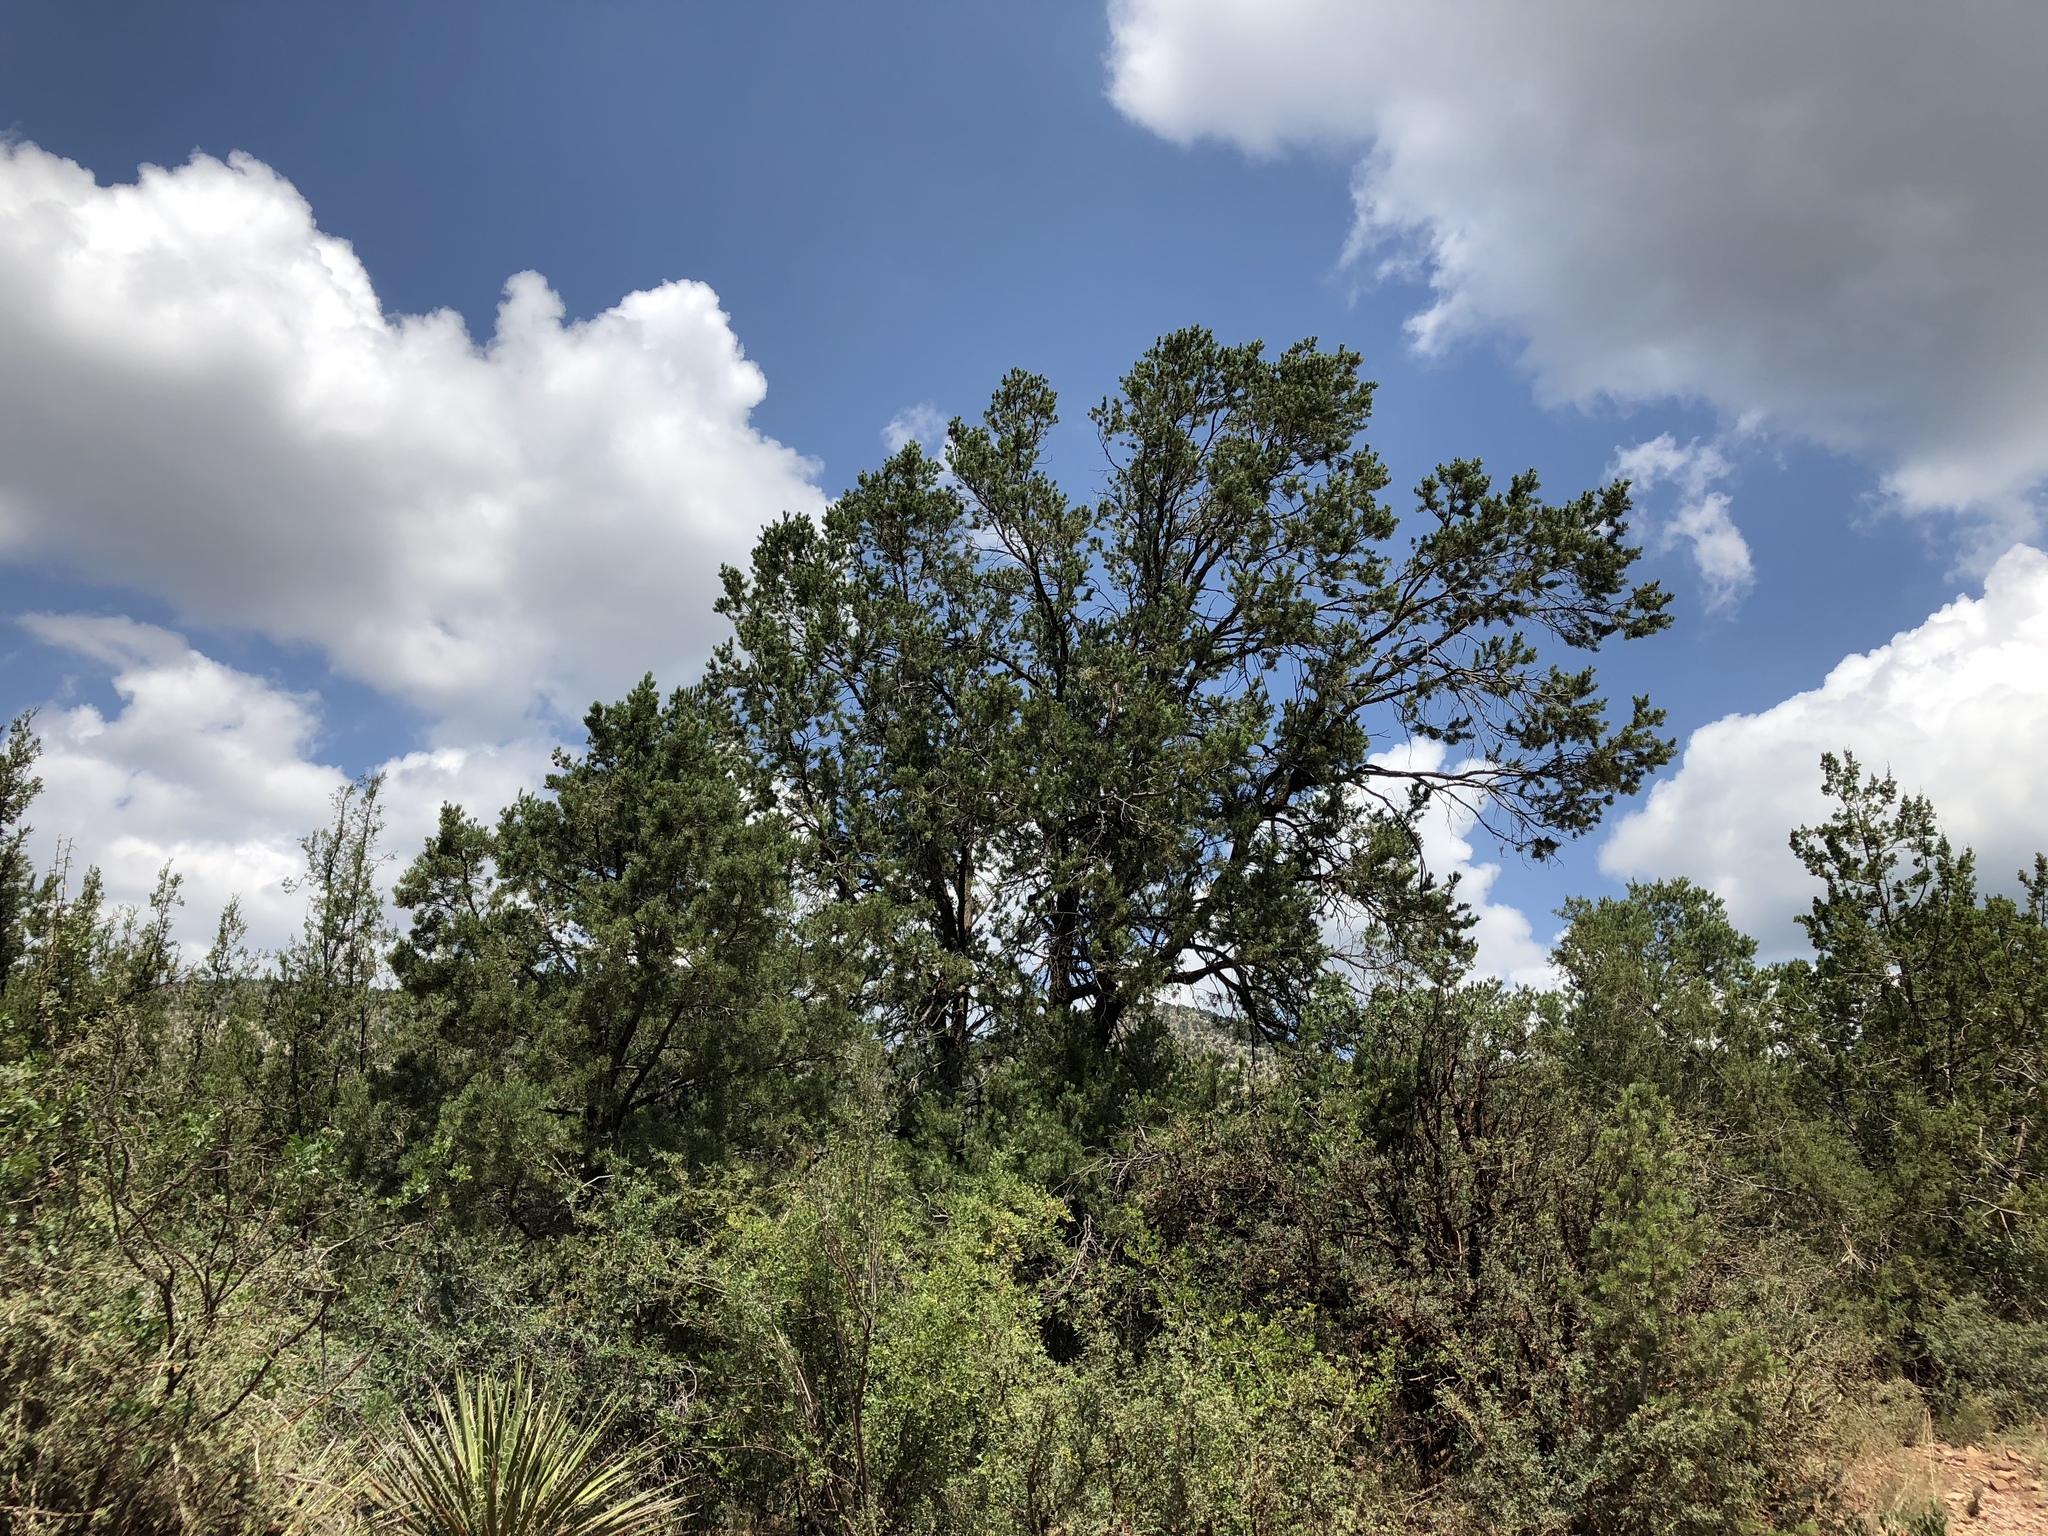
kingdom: Plantae
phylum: Tracheophyta
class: Pinopsida
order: Pinales
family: Pinaceae
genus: Pinus
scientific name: Pinus edulis
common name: Colorado pinyon
